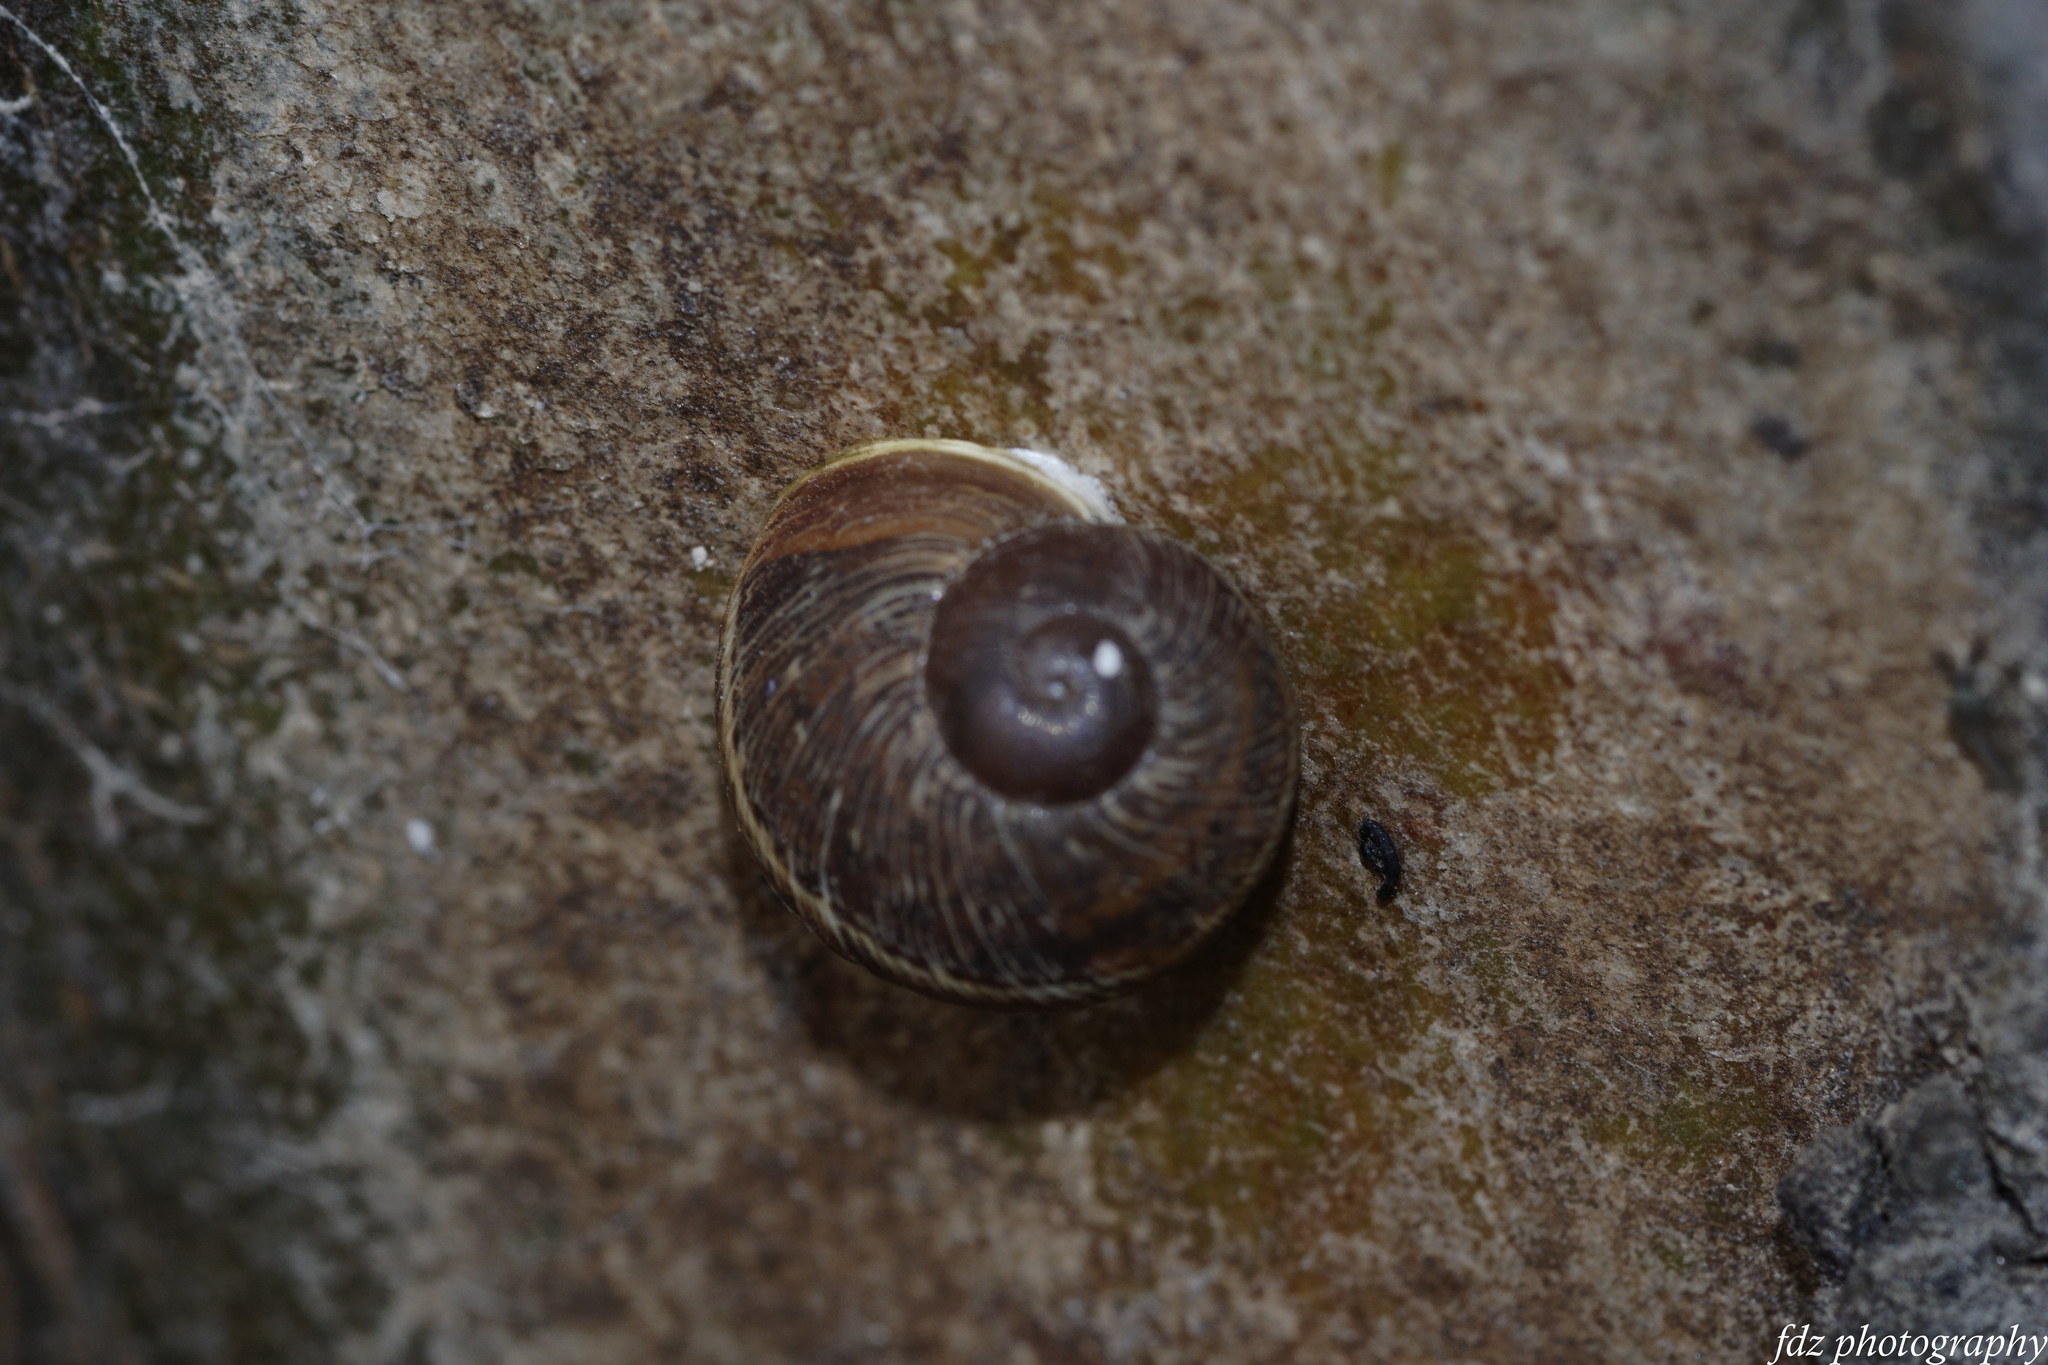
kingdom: Animalia
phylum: Mollusca
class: Gastropoda
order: Stylommatophora
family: Helicidae
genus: Cornu
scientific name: Cornu aspersum
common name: Brown garden snail
